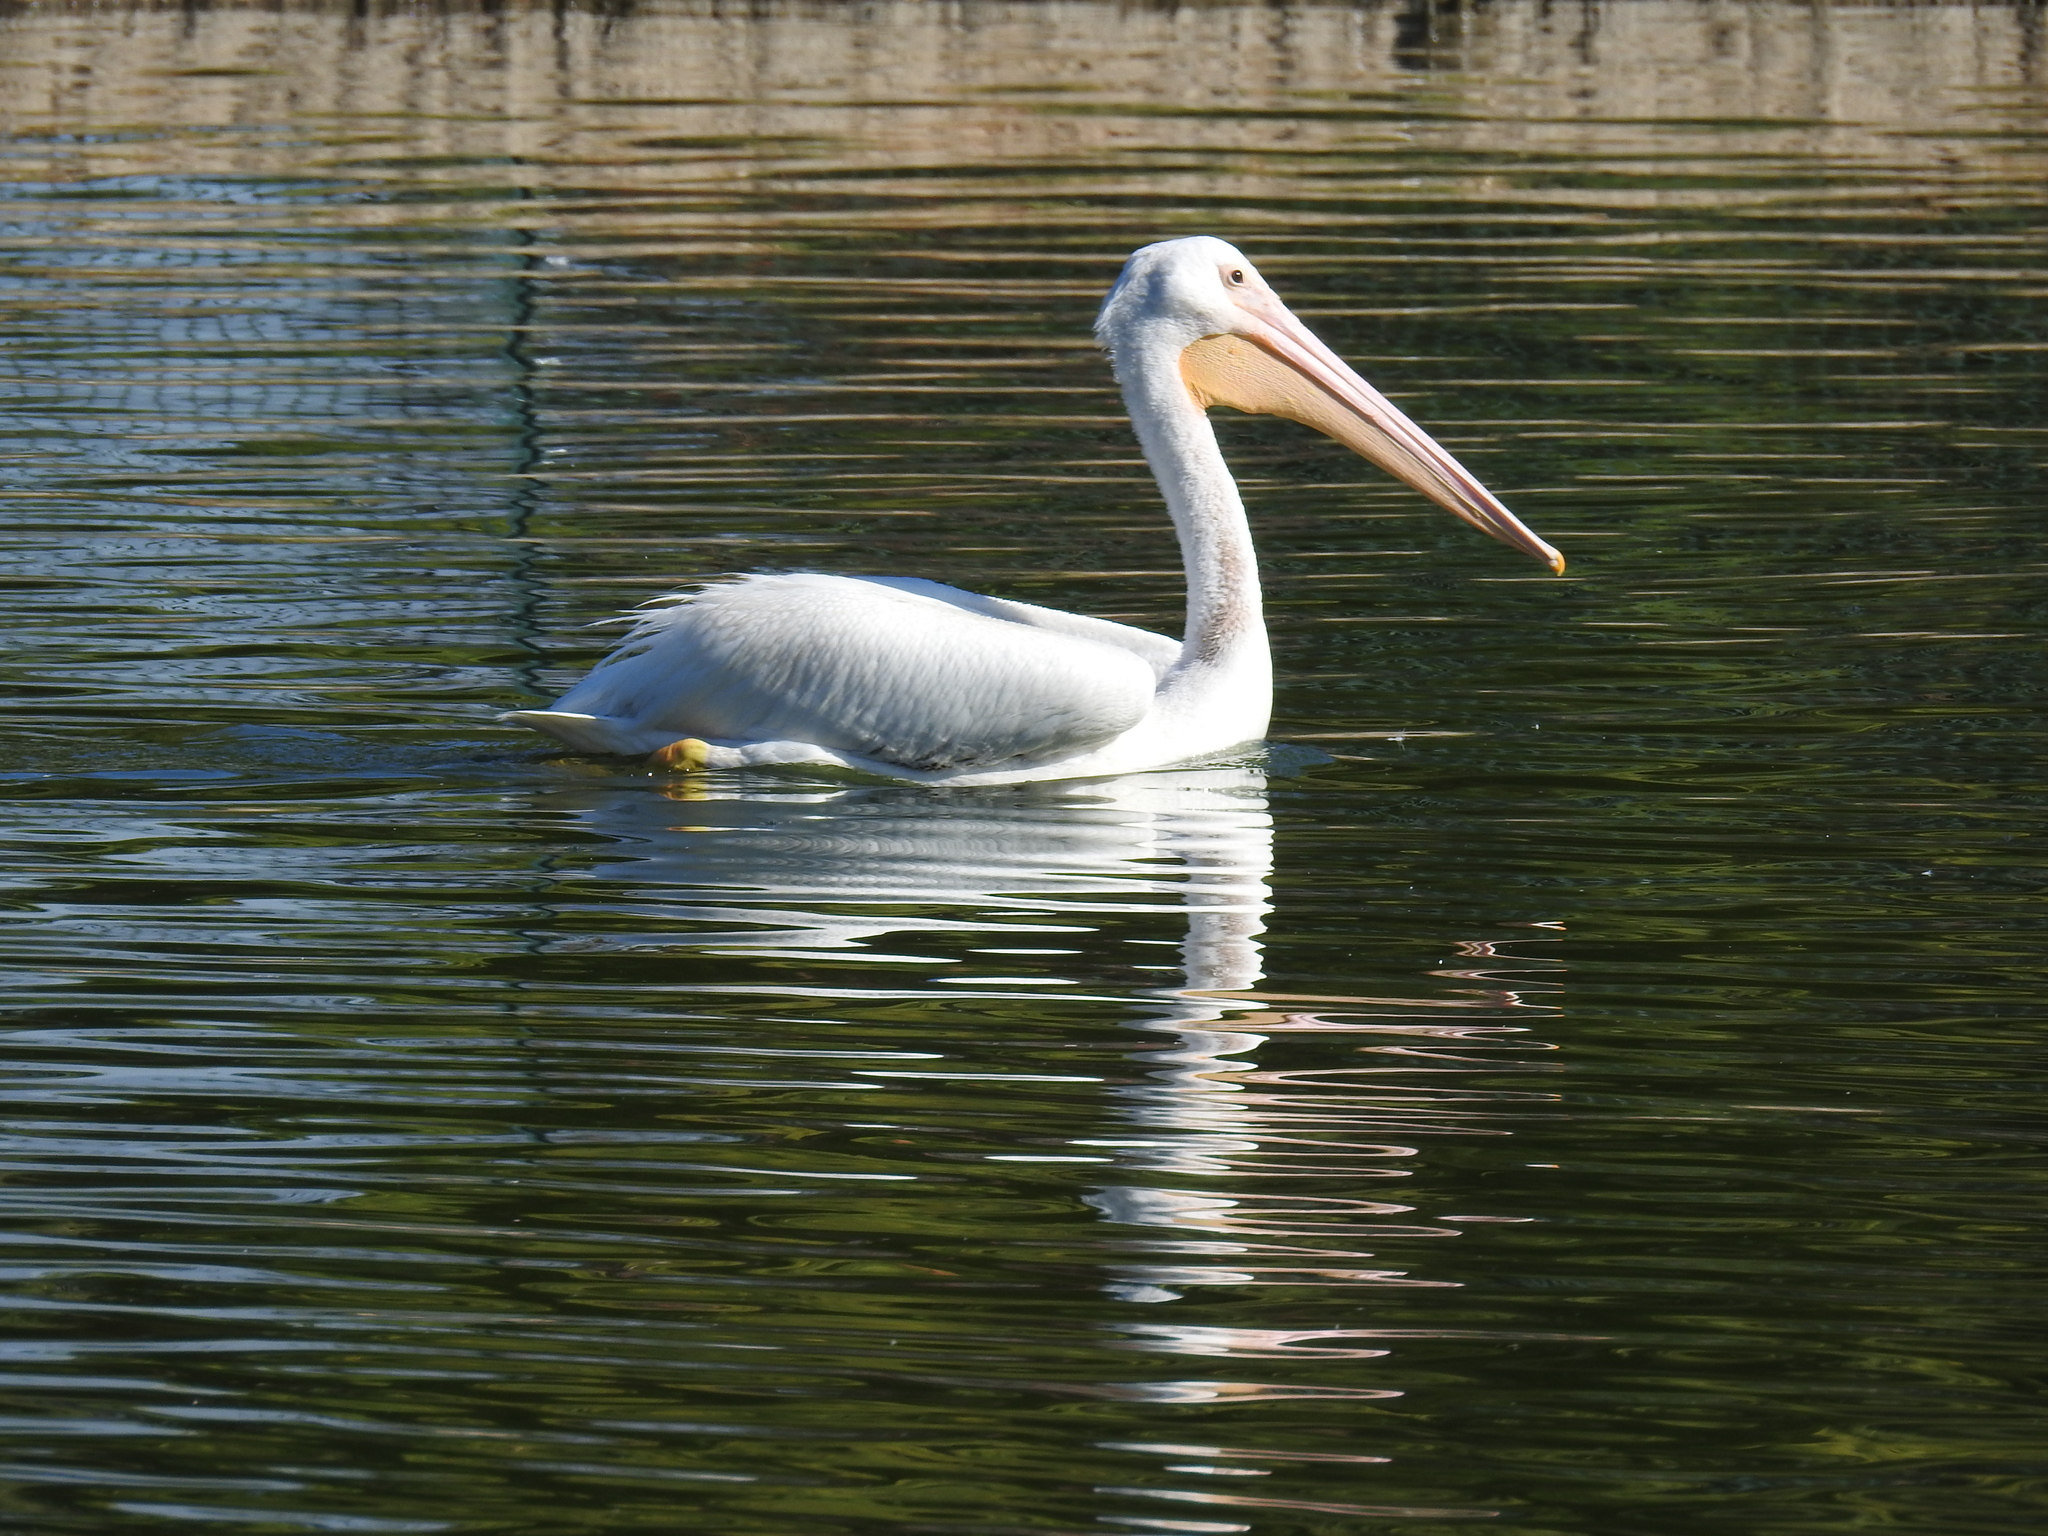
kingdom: Animalia
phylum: Chordata
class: Aves
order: Pelecaniformes
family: Pelecanidae
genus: Pelecanus
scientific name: Pelecanus erythrorhynchos
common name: American white pelican
